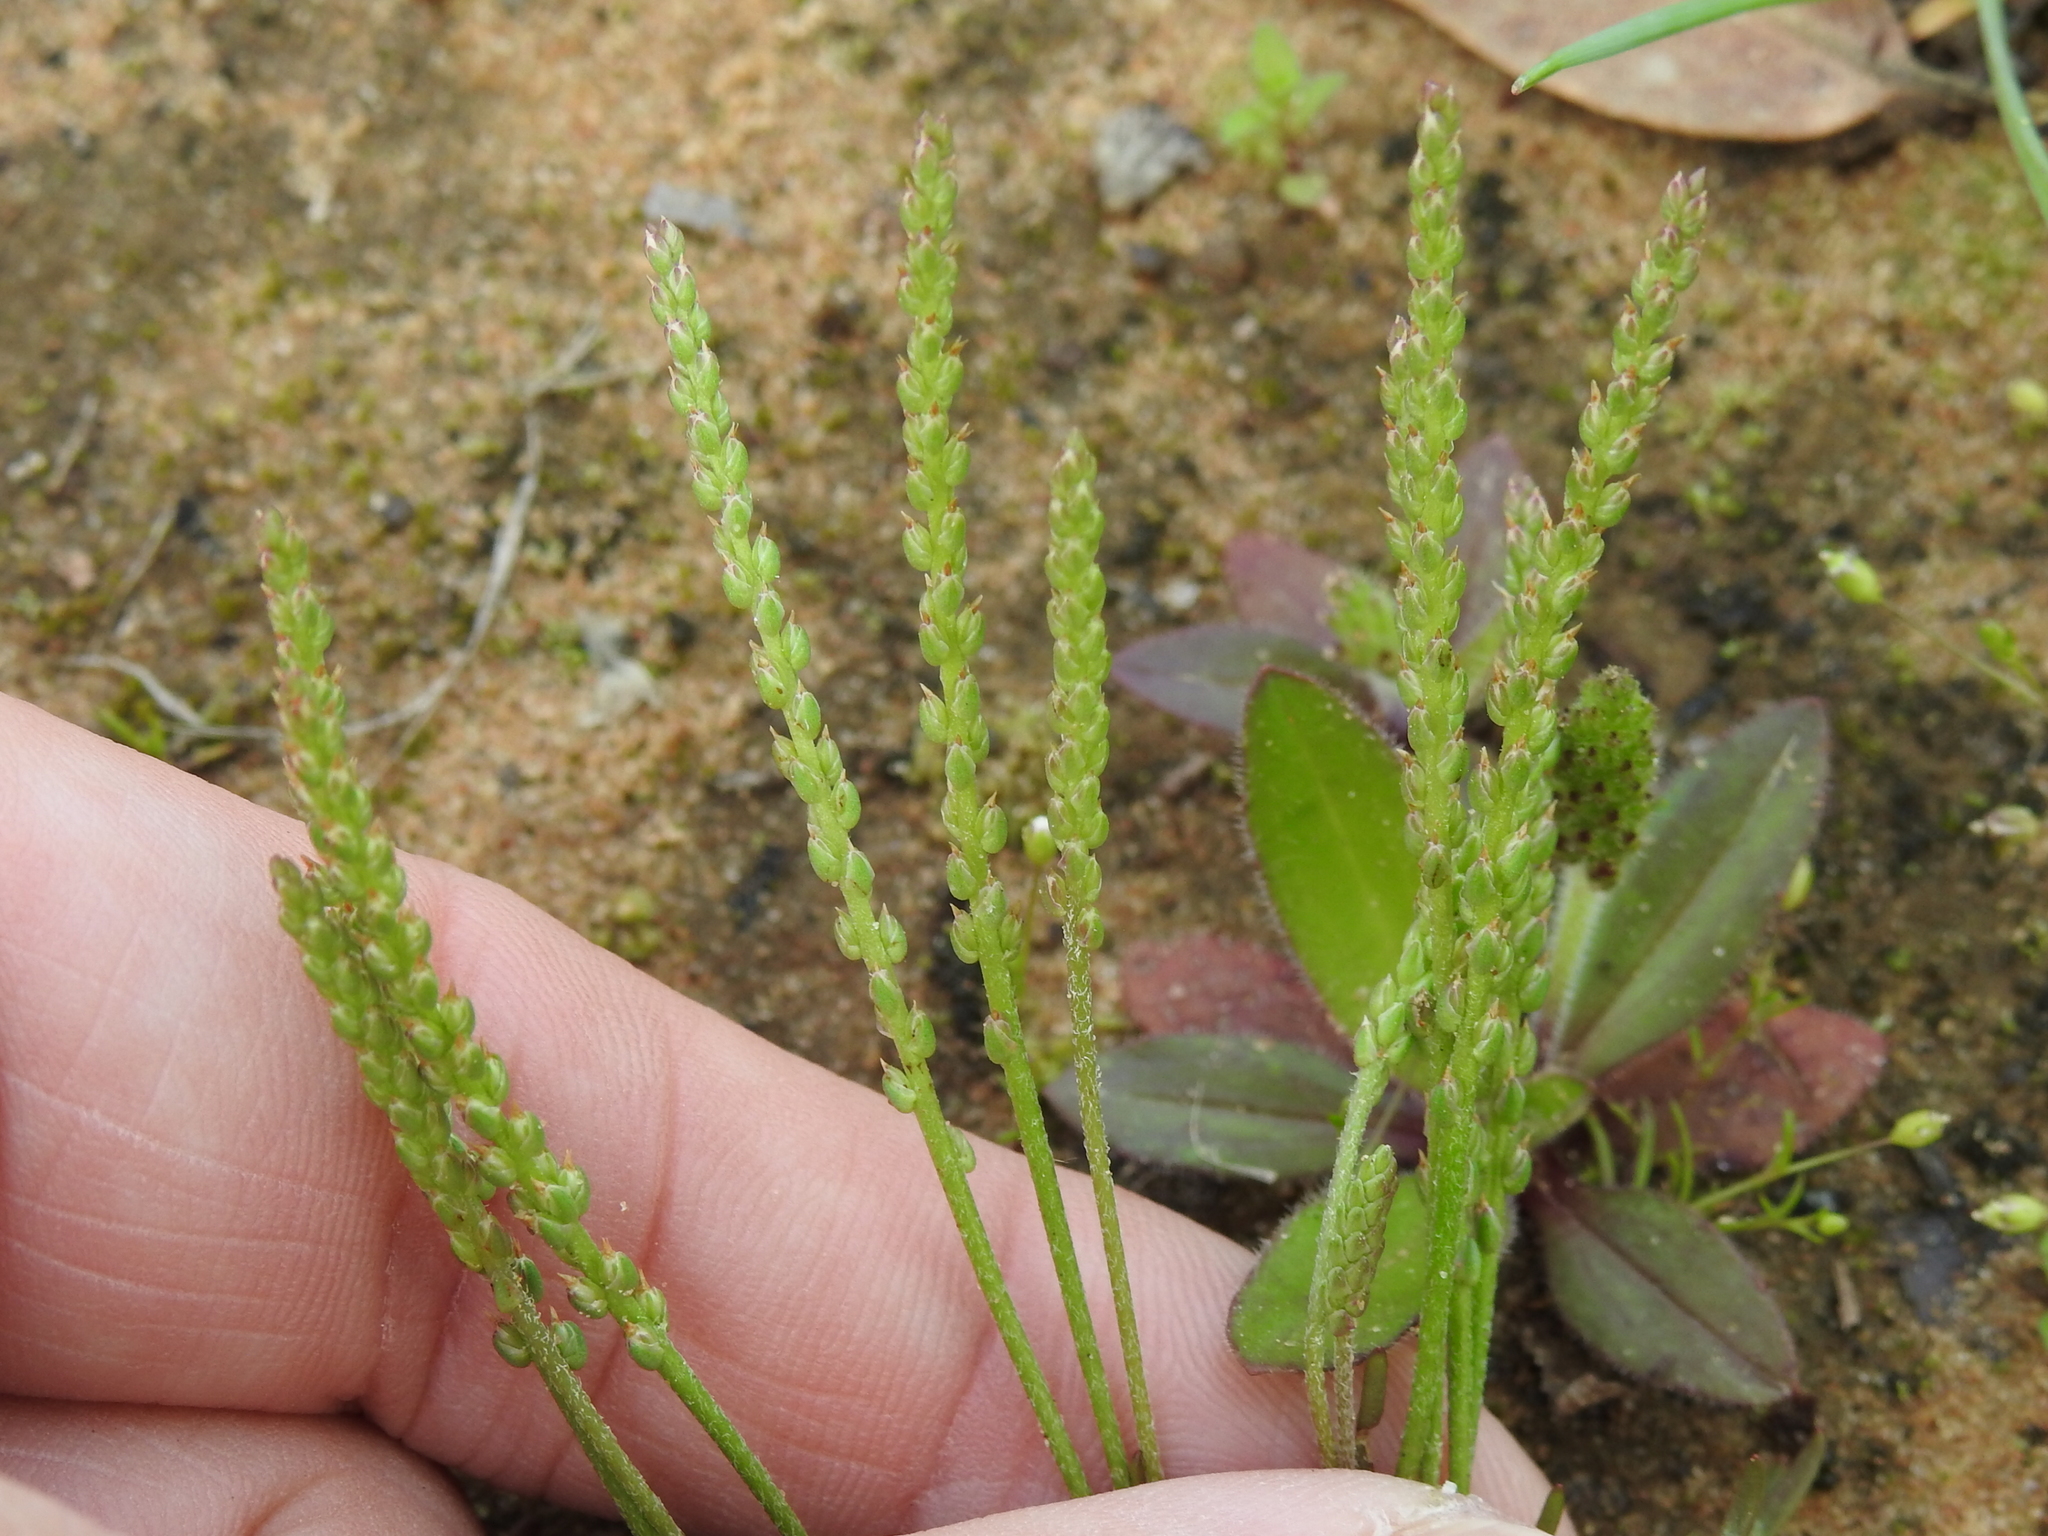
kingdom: Plantae
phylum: Tracheophyta
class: Magnoliopsida
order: Lamiales
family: Plantaginaceae
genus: Plantago
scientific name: Plantago heterophylla
